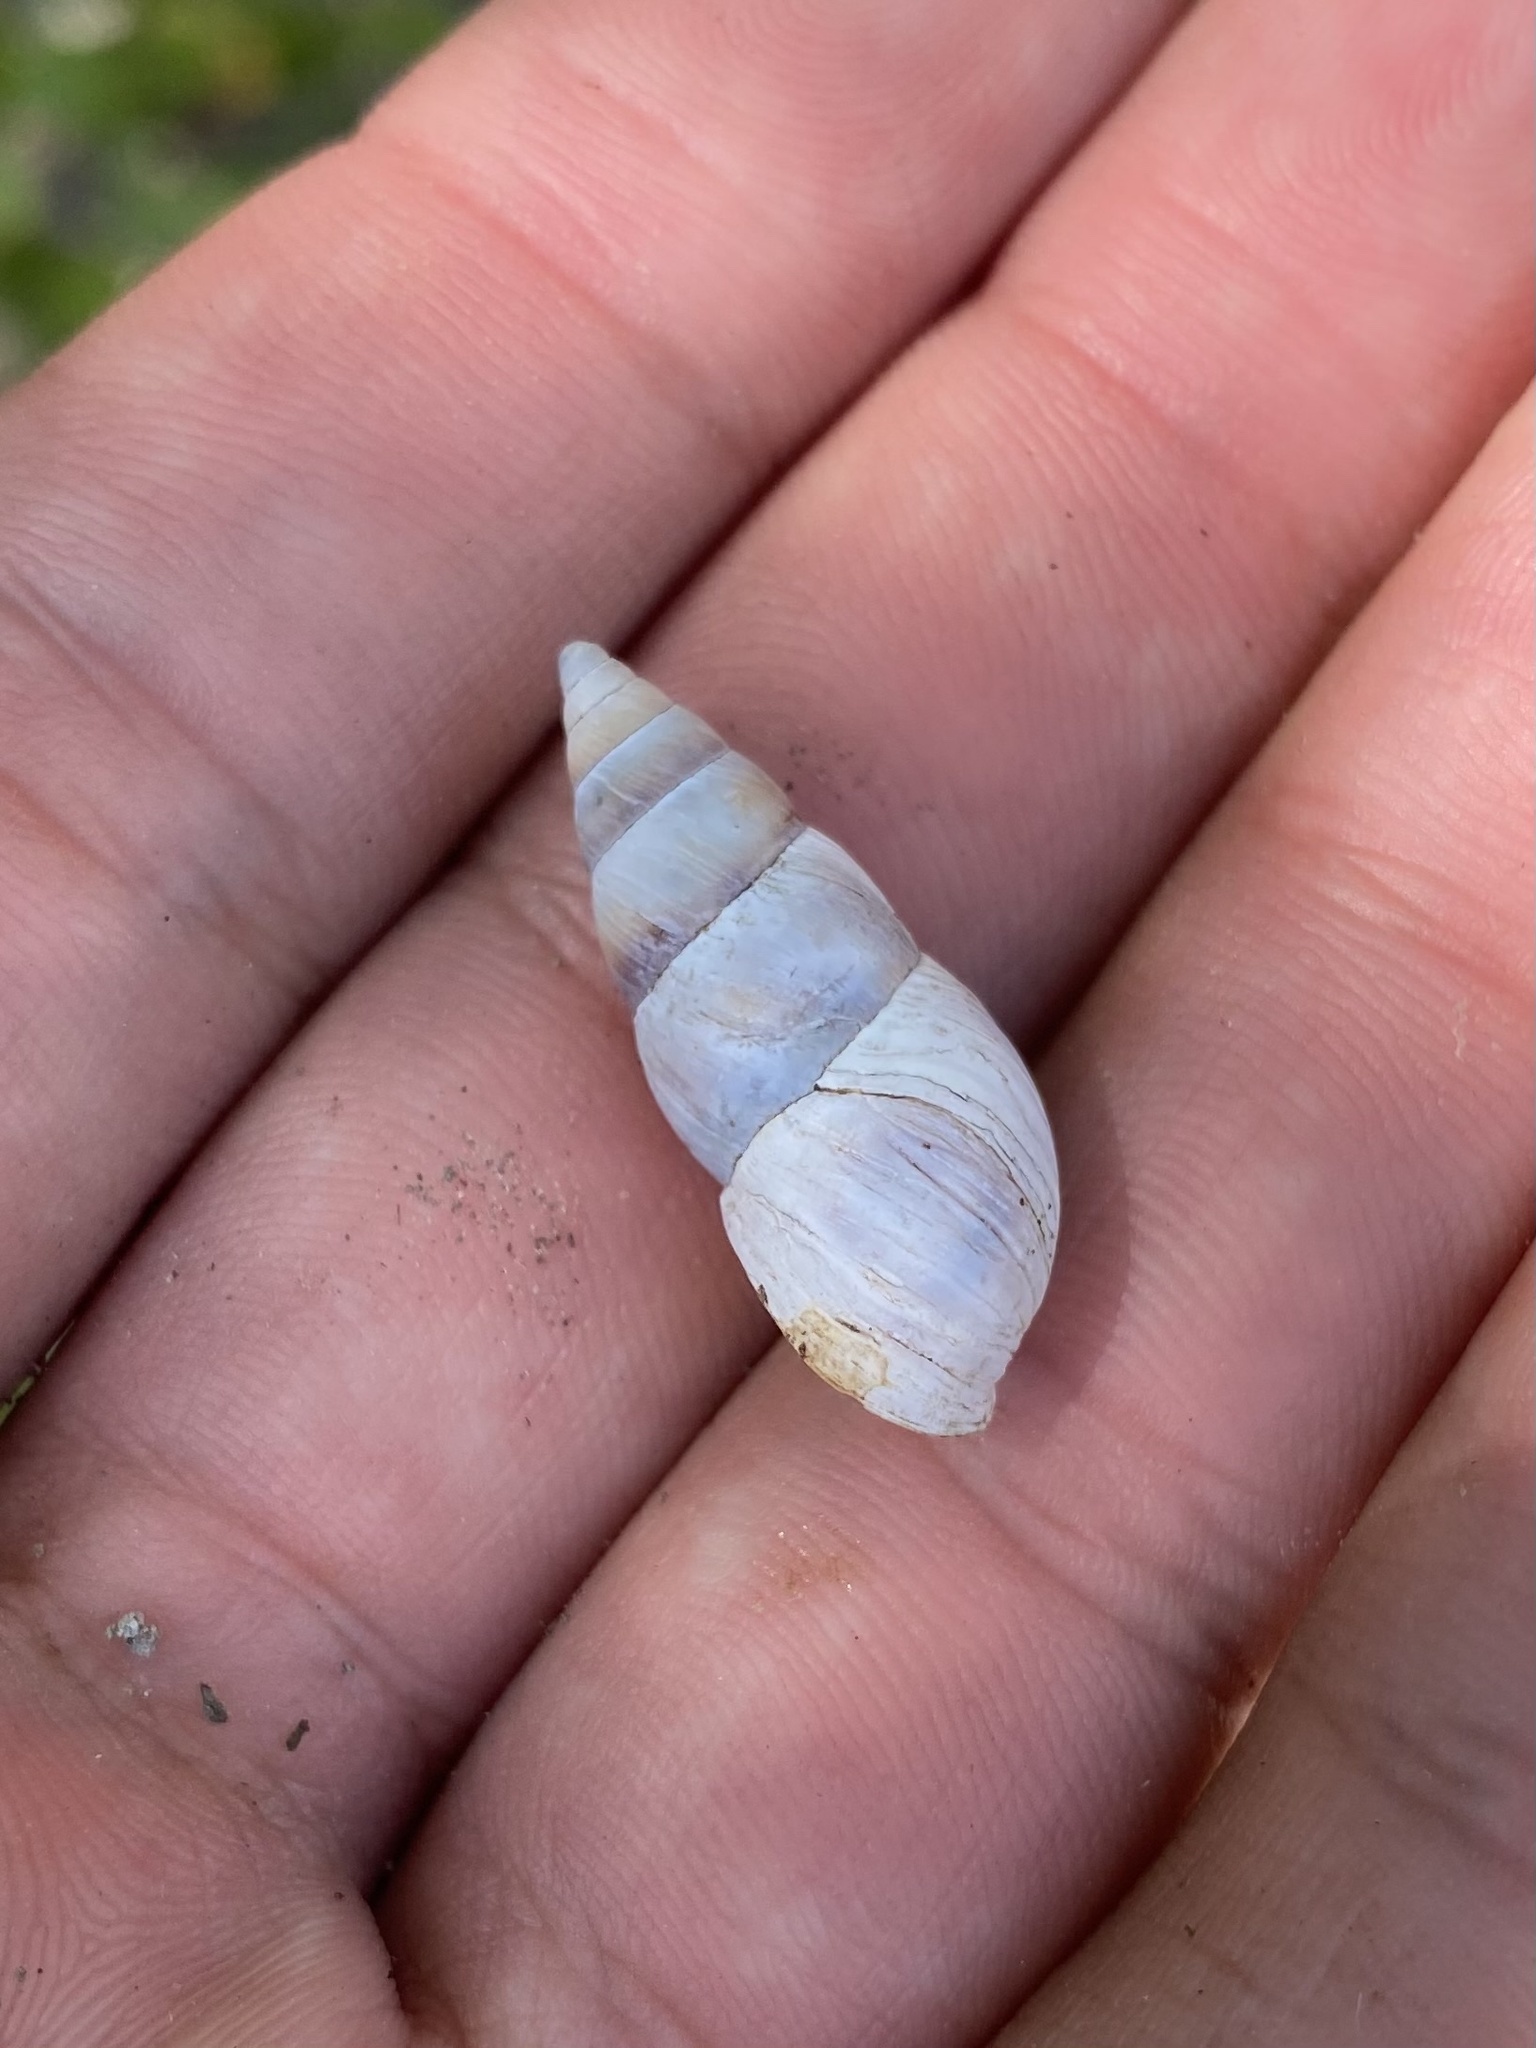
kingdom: Animalia
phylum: Mollusca
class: Gastropoda
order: Stylommatophora
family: Enidae
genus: Caucasicola
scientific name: Caucasicola raddei
